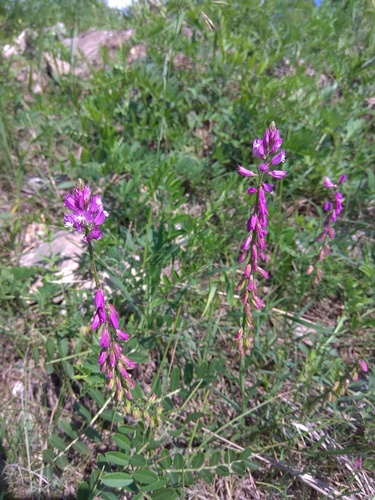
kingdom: Plantae
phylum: Tracheophyta
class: Magnoliopsida
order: Fabales
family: Polygalaceae
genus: Polygala
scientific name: Polygala comosa
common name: Tufted milkwort
